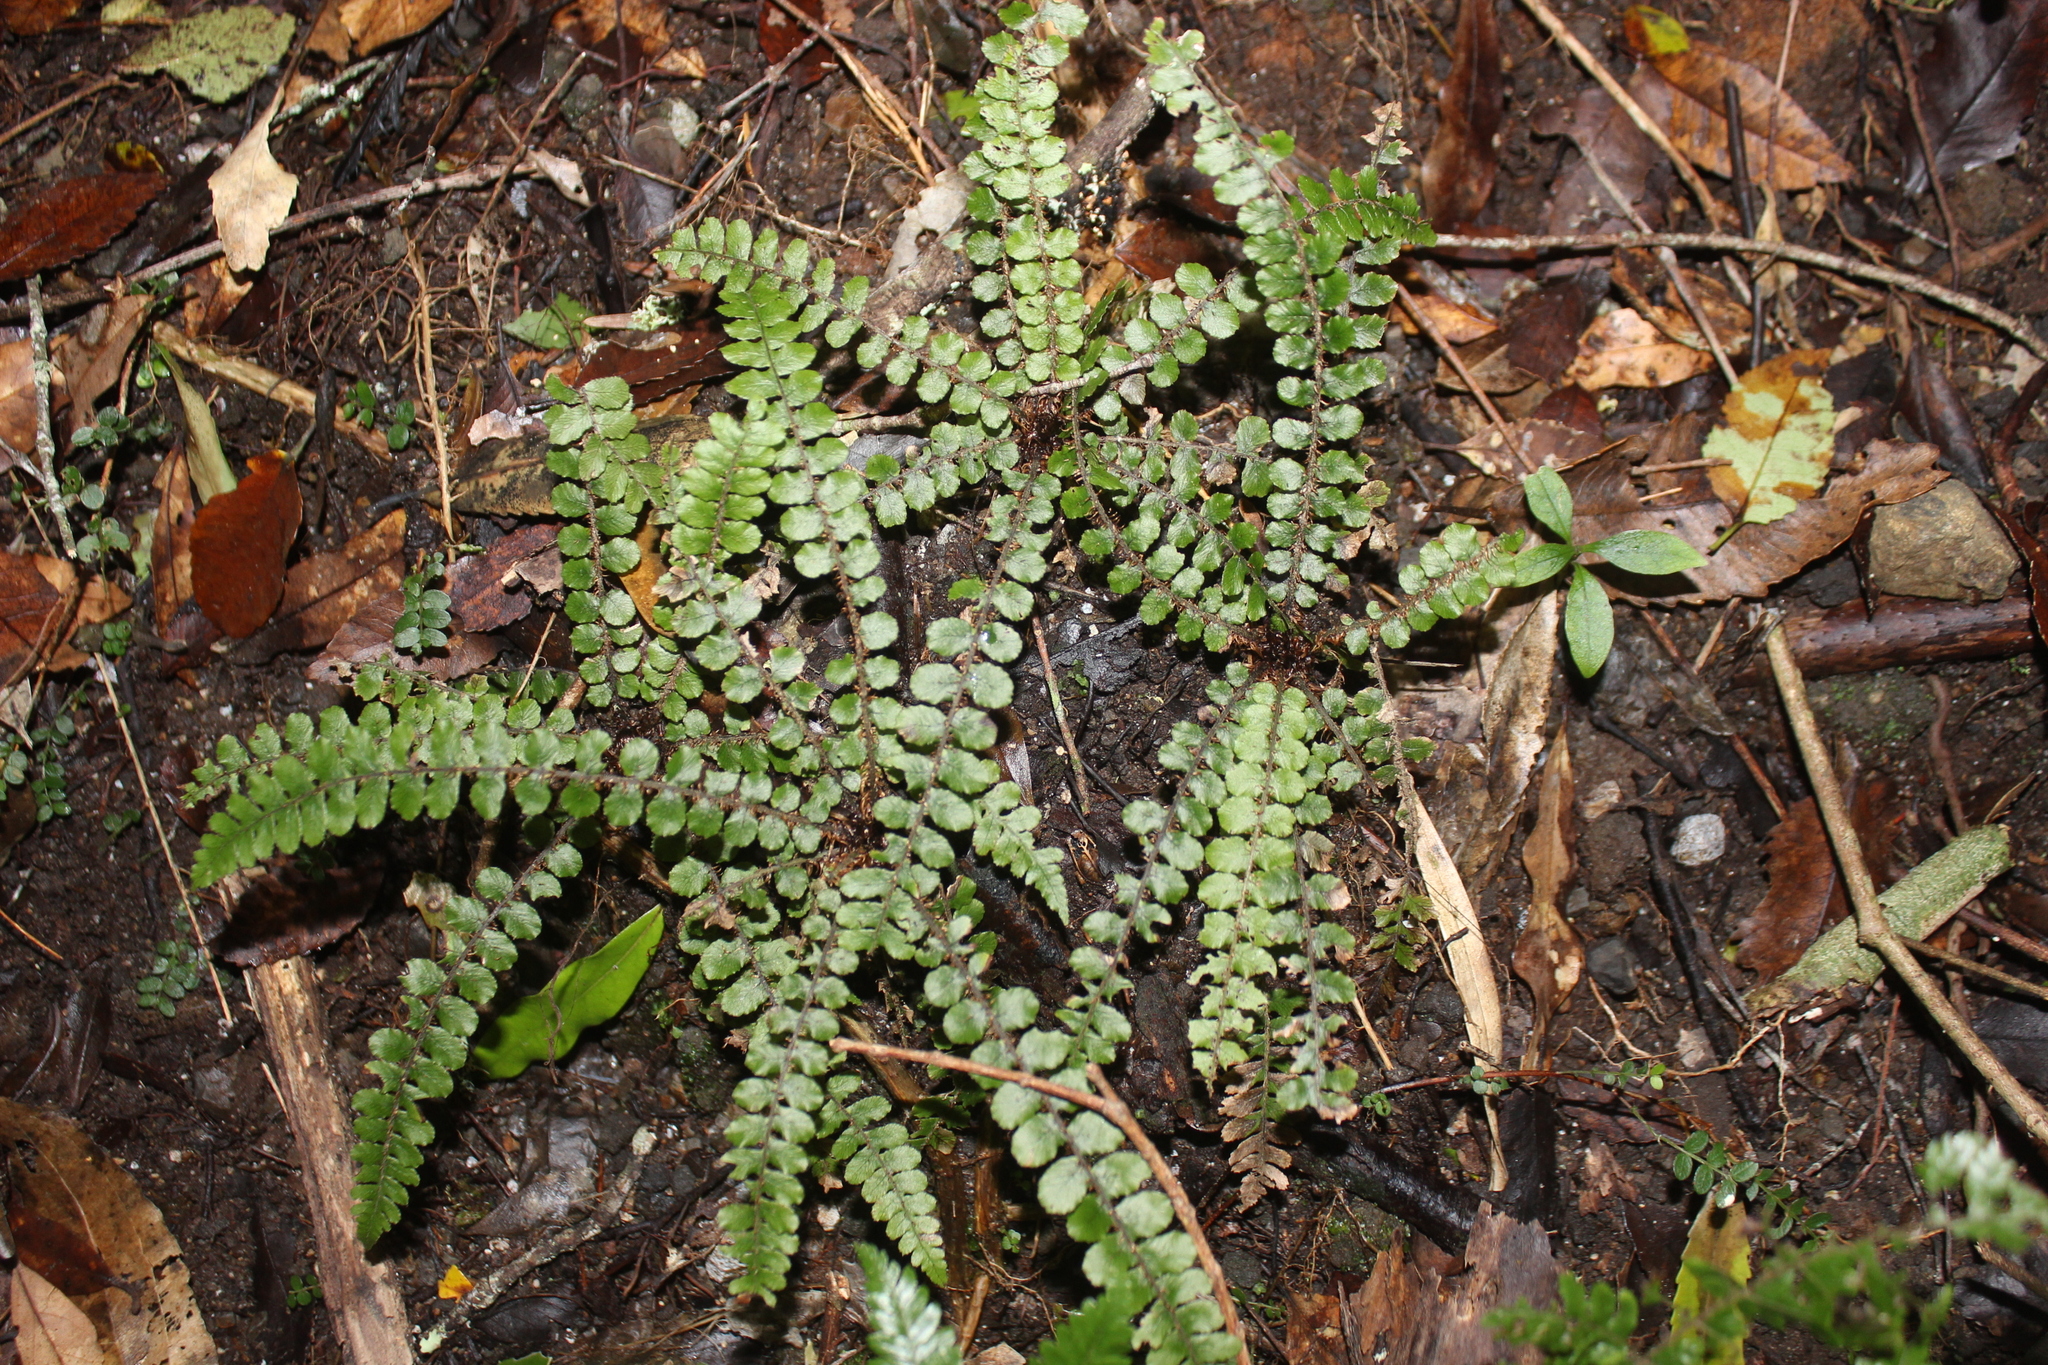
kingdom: Plantae
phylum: Tracheophyta
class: Polypodiopsida
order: Polypodiales
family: Blechnaceae
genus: Cranfillia
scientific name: Cranfillia fluviatilis
